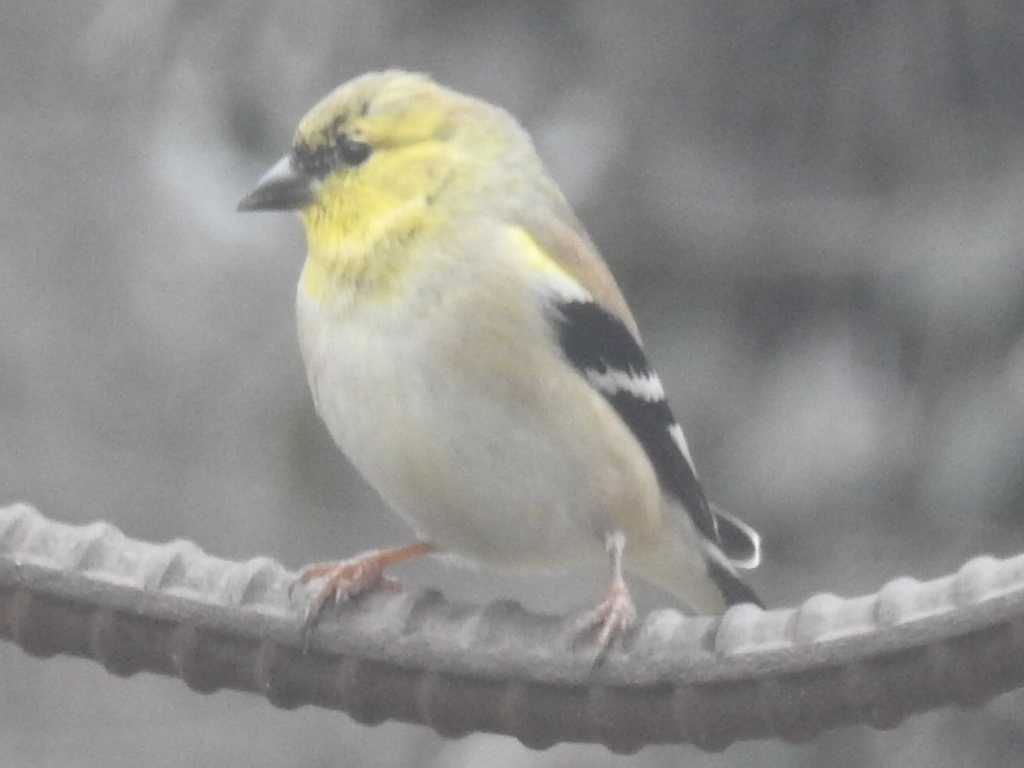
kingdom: Animalia
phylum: Chordata
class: Aves
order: Passeriformes
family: Fringillidae
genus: Spinus
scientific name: Spinus tristis
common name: American goldfinch
